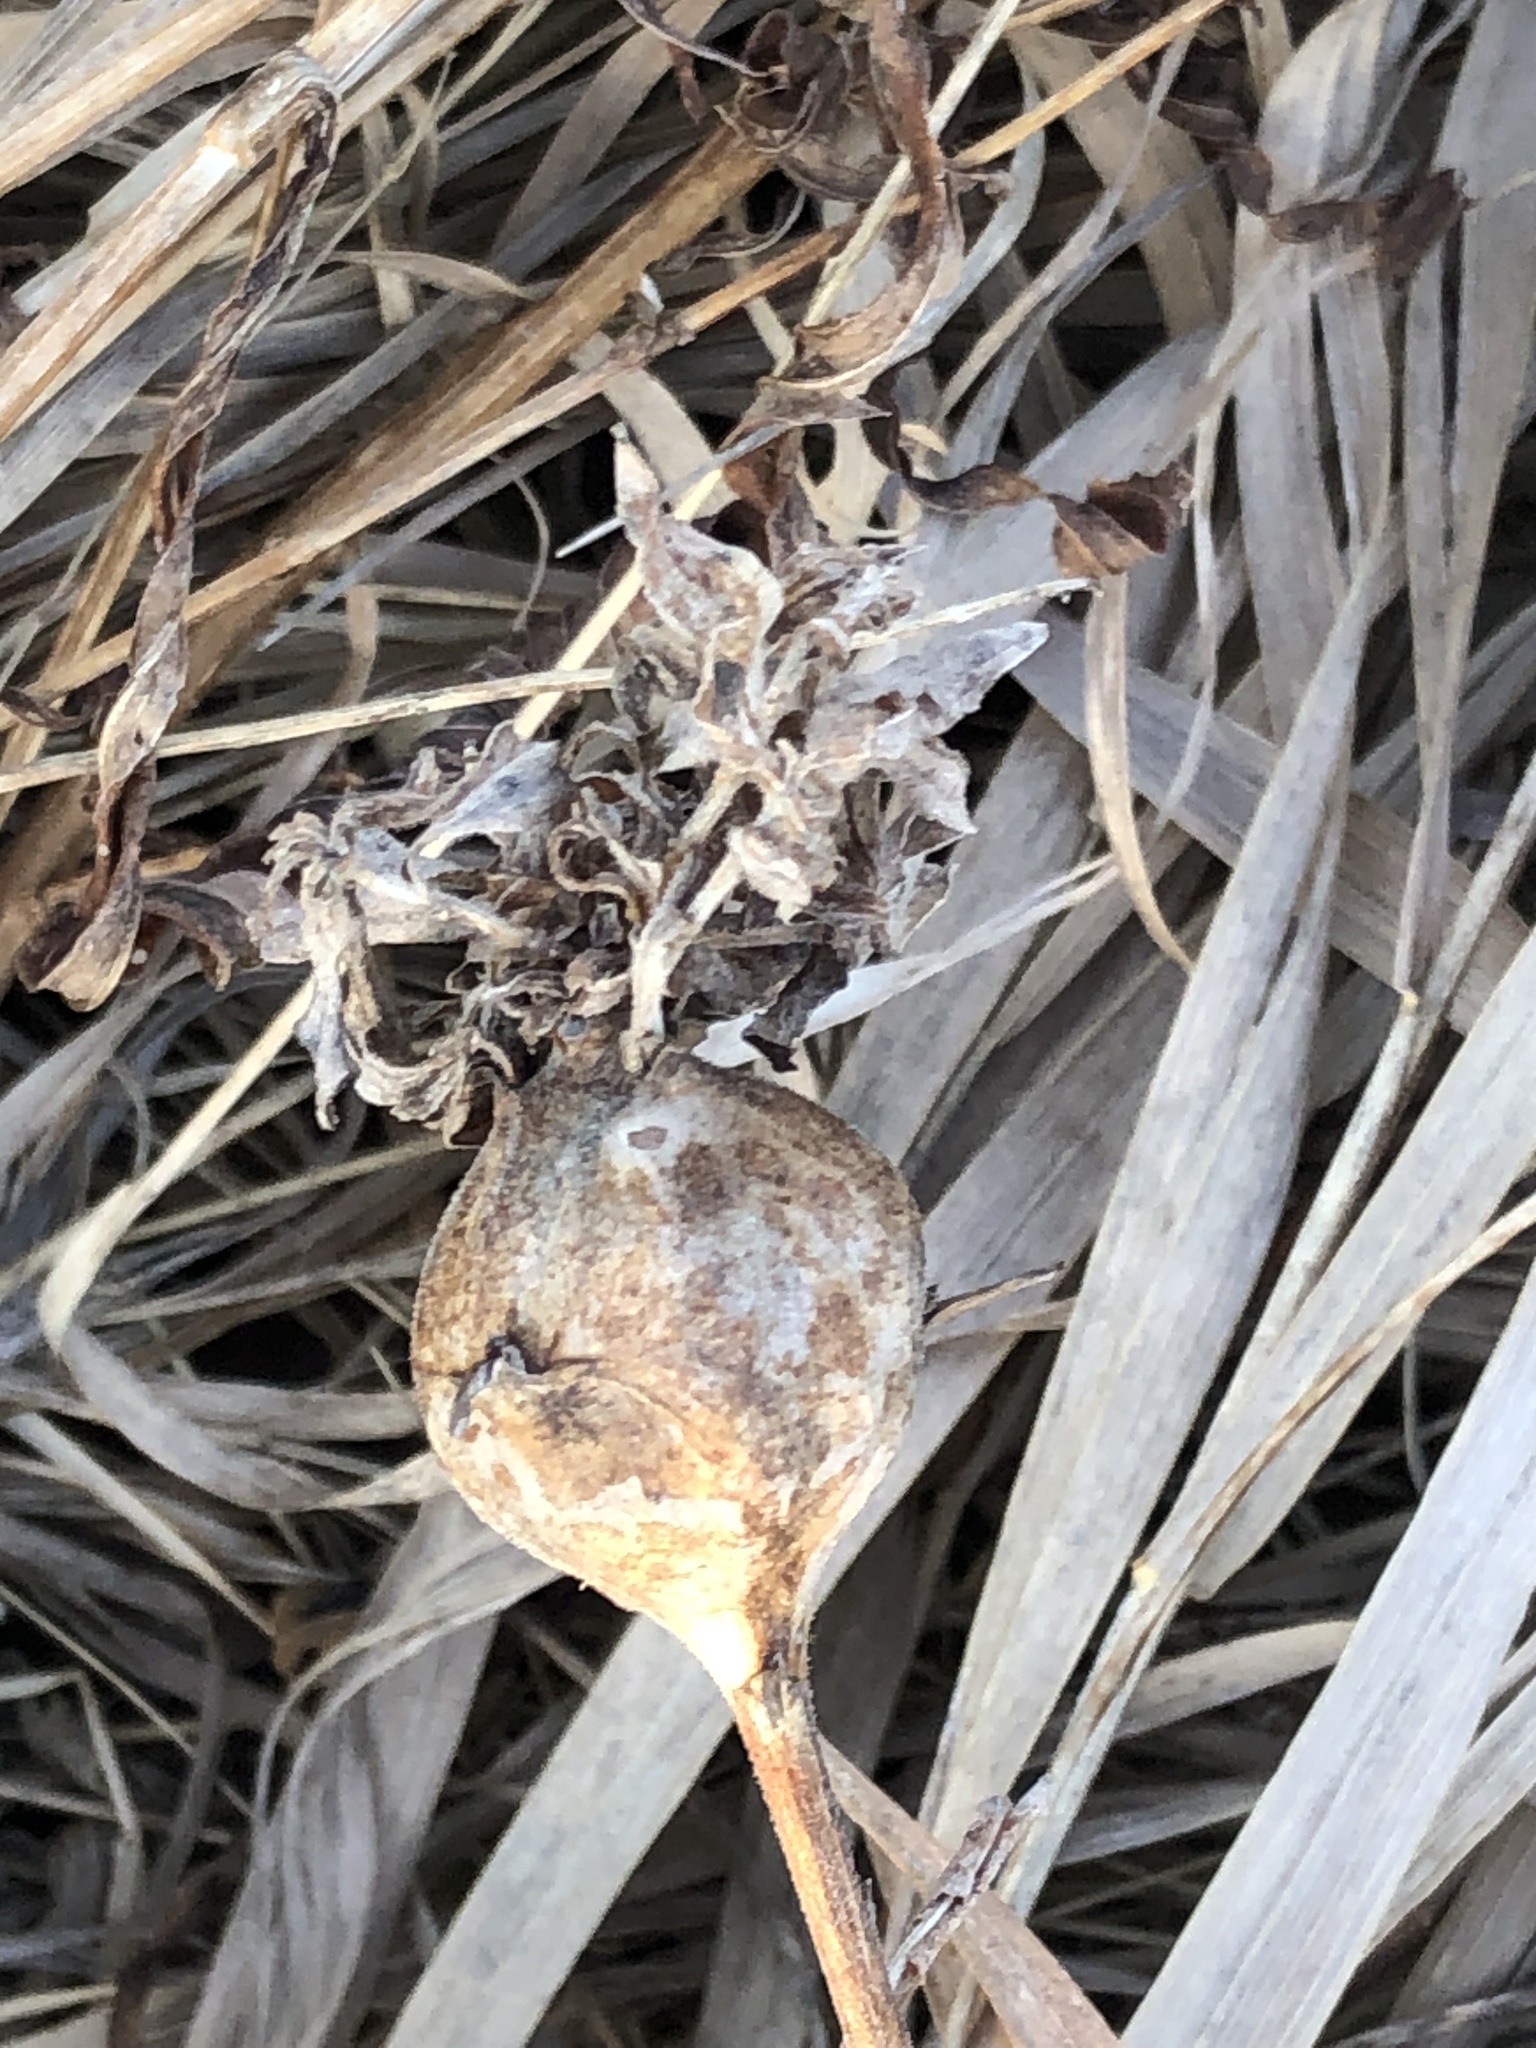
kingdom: Animalia
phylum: Arthropoda
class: Insecta
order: Diptera
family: Tephritidae
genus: Eurosta
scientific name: Eurosta solidaginis
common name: Goldenrod gall fly
